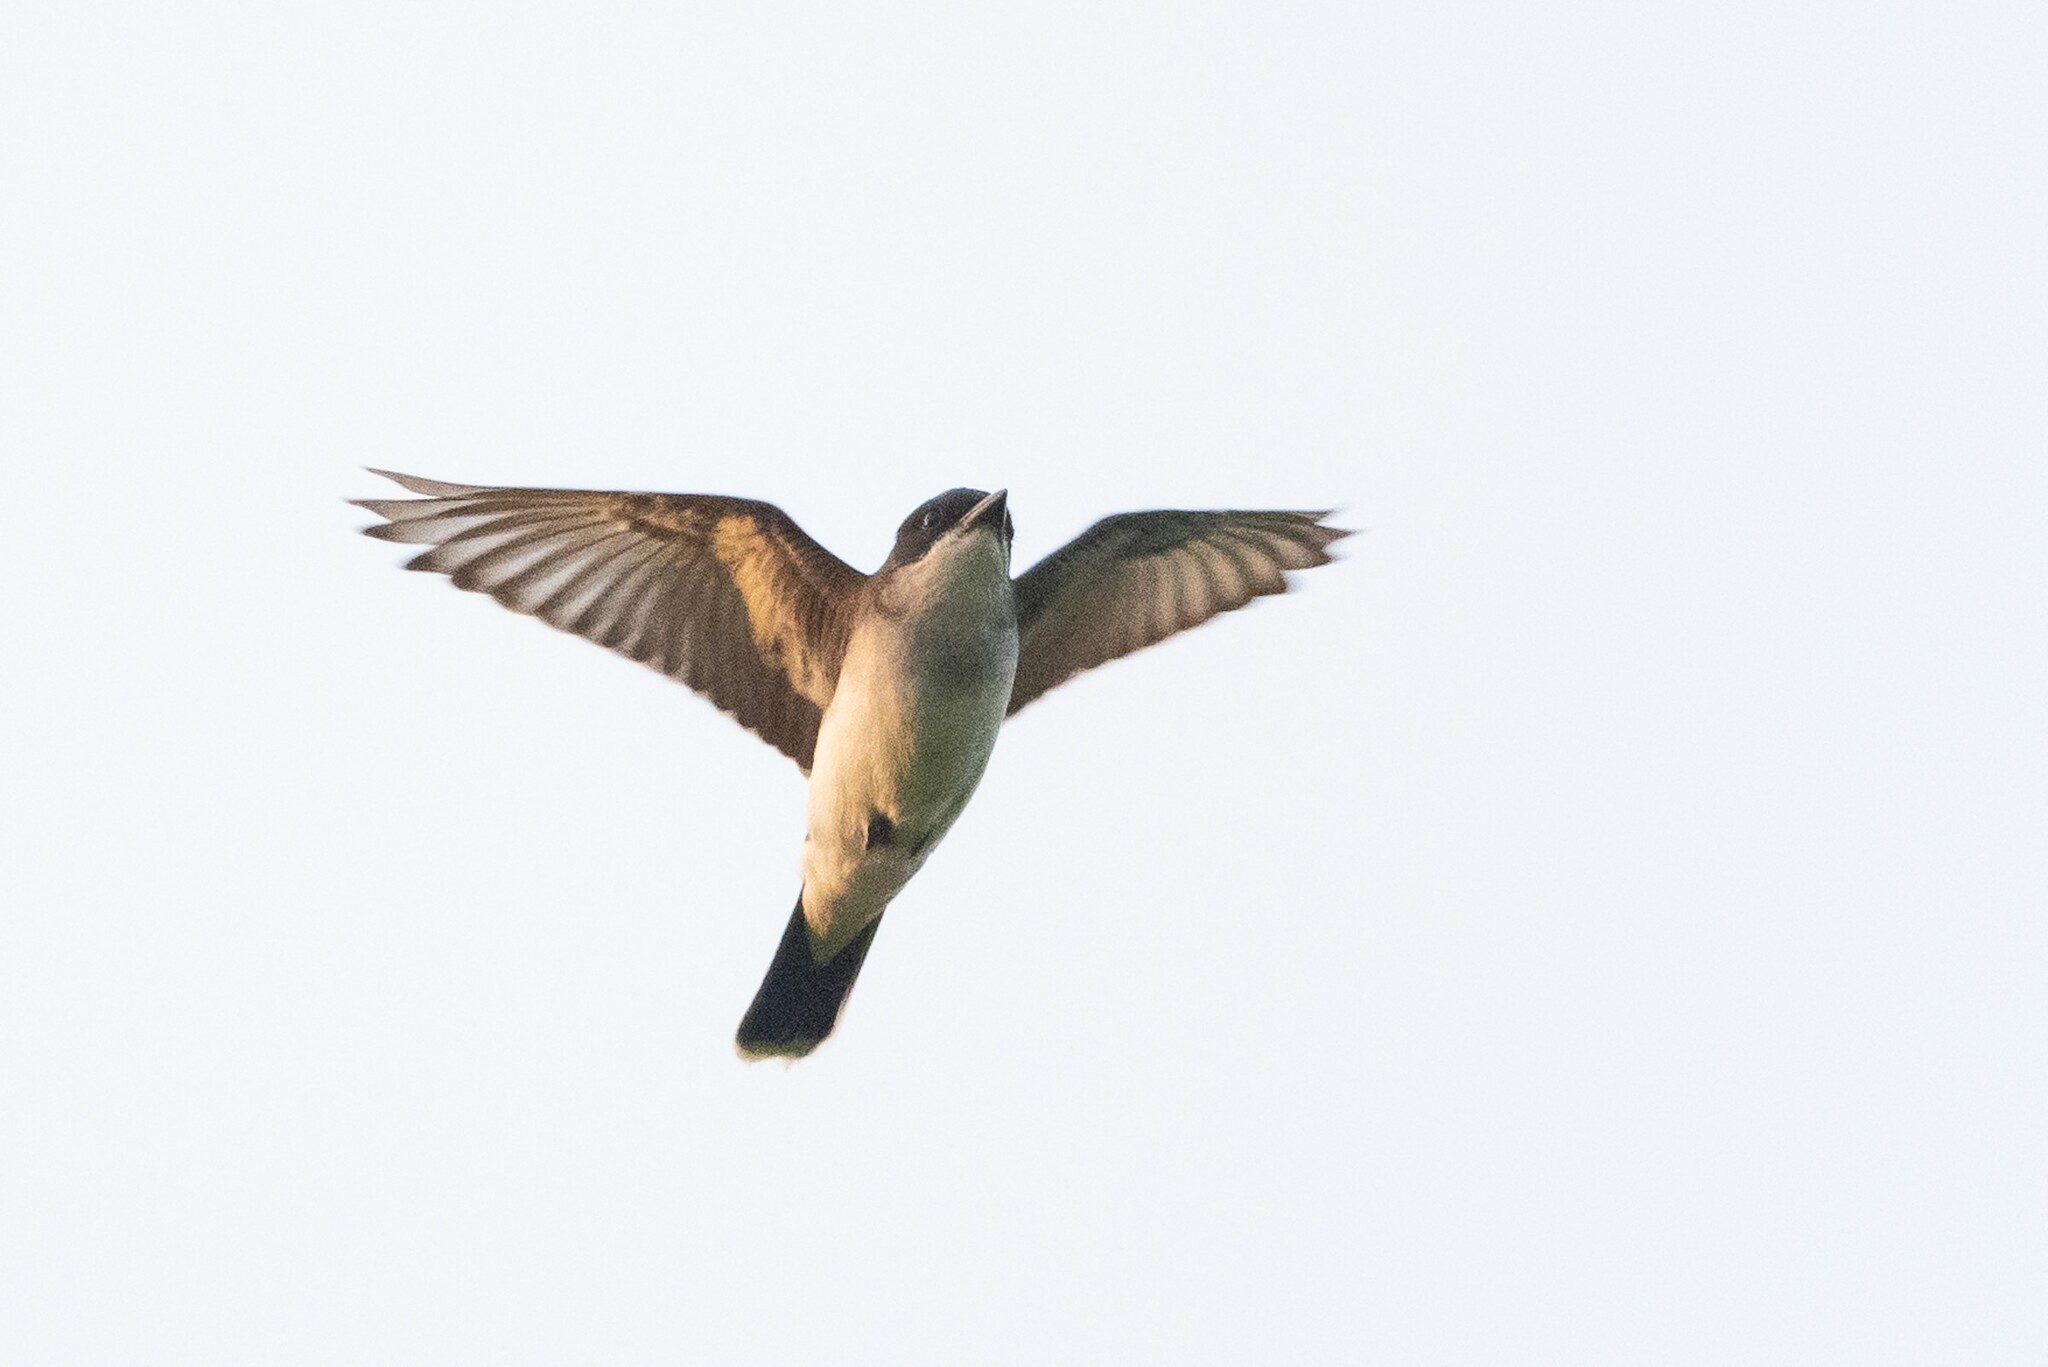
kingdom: Animalia
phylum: Chordata
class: Aves
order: Passeriformes
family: Tyrannidae
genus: Tyrannus
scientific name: Tyrannus tyrannus
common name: Eastern kingbird
